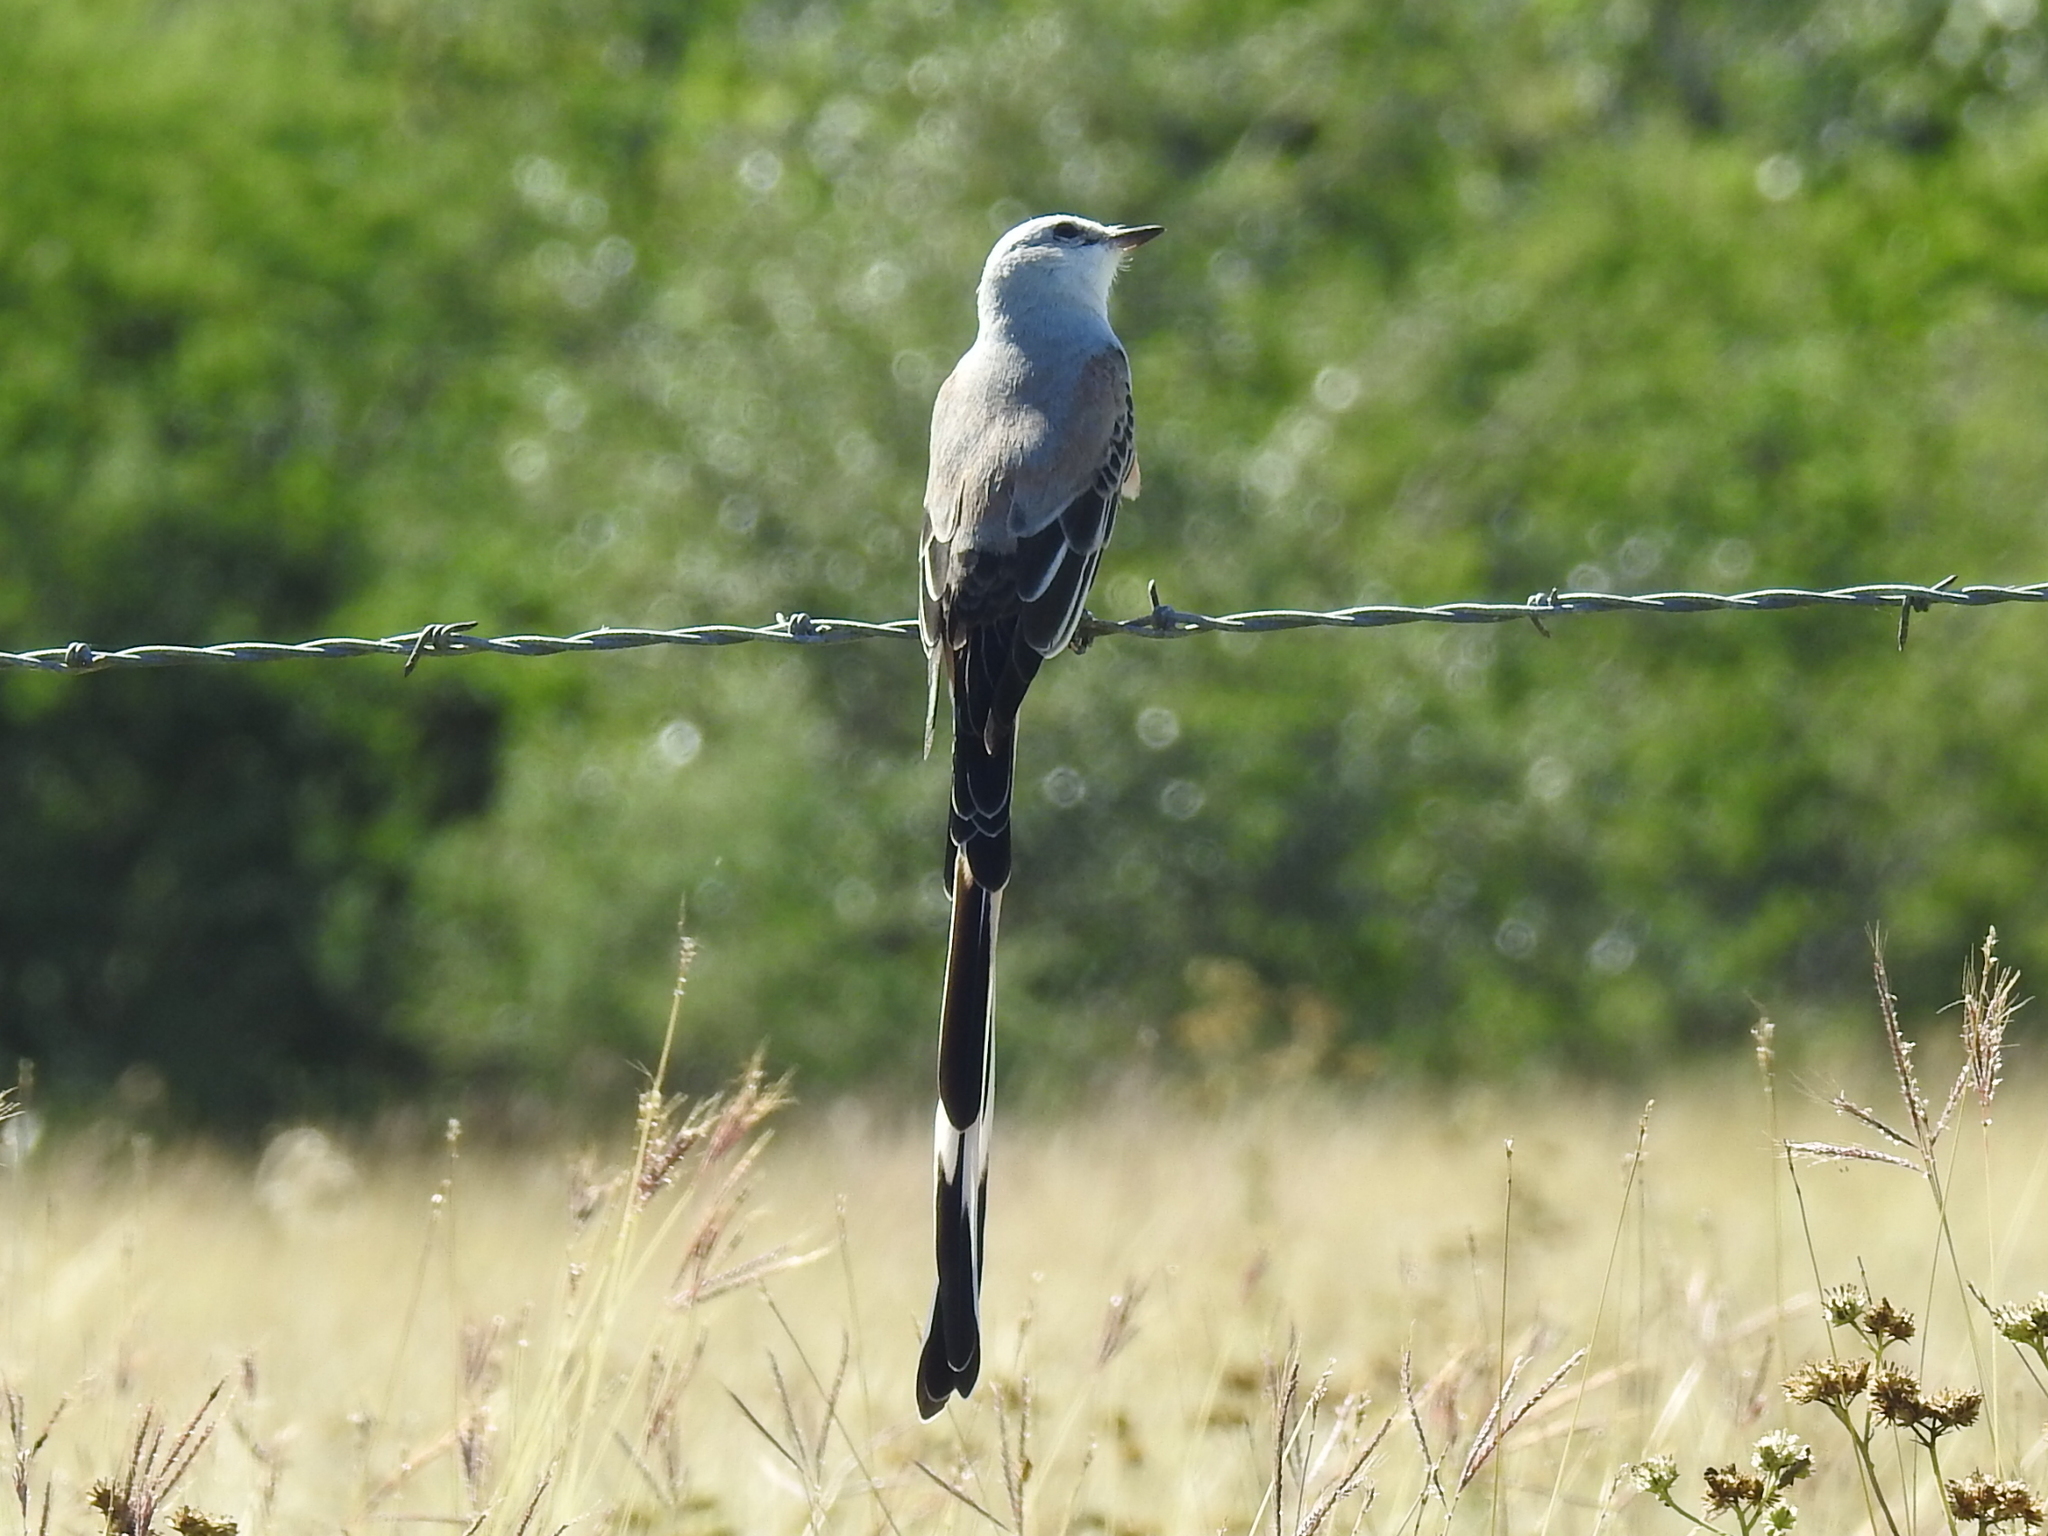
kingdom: Animalia
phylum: Chordata
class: Aves
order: Passeriformes
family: Tyrannidae
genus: Tyrannus
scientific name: Tyrannus forficatus
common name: Scissor-tailed flycatcher
